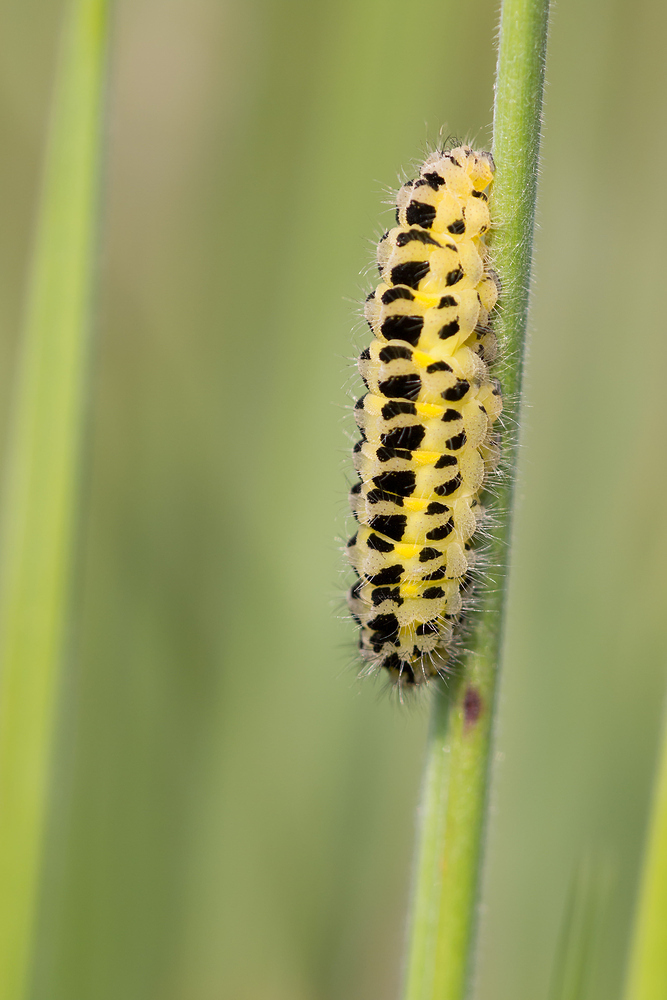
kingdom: Animalia
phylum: Arthropoda
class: Insecta
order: Lepidoptera
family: Zygaenidae
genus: Zygaena
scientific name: Zygaena filipendulae
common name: Six-spot burnet
